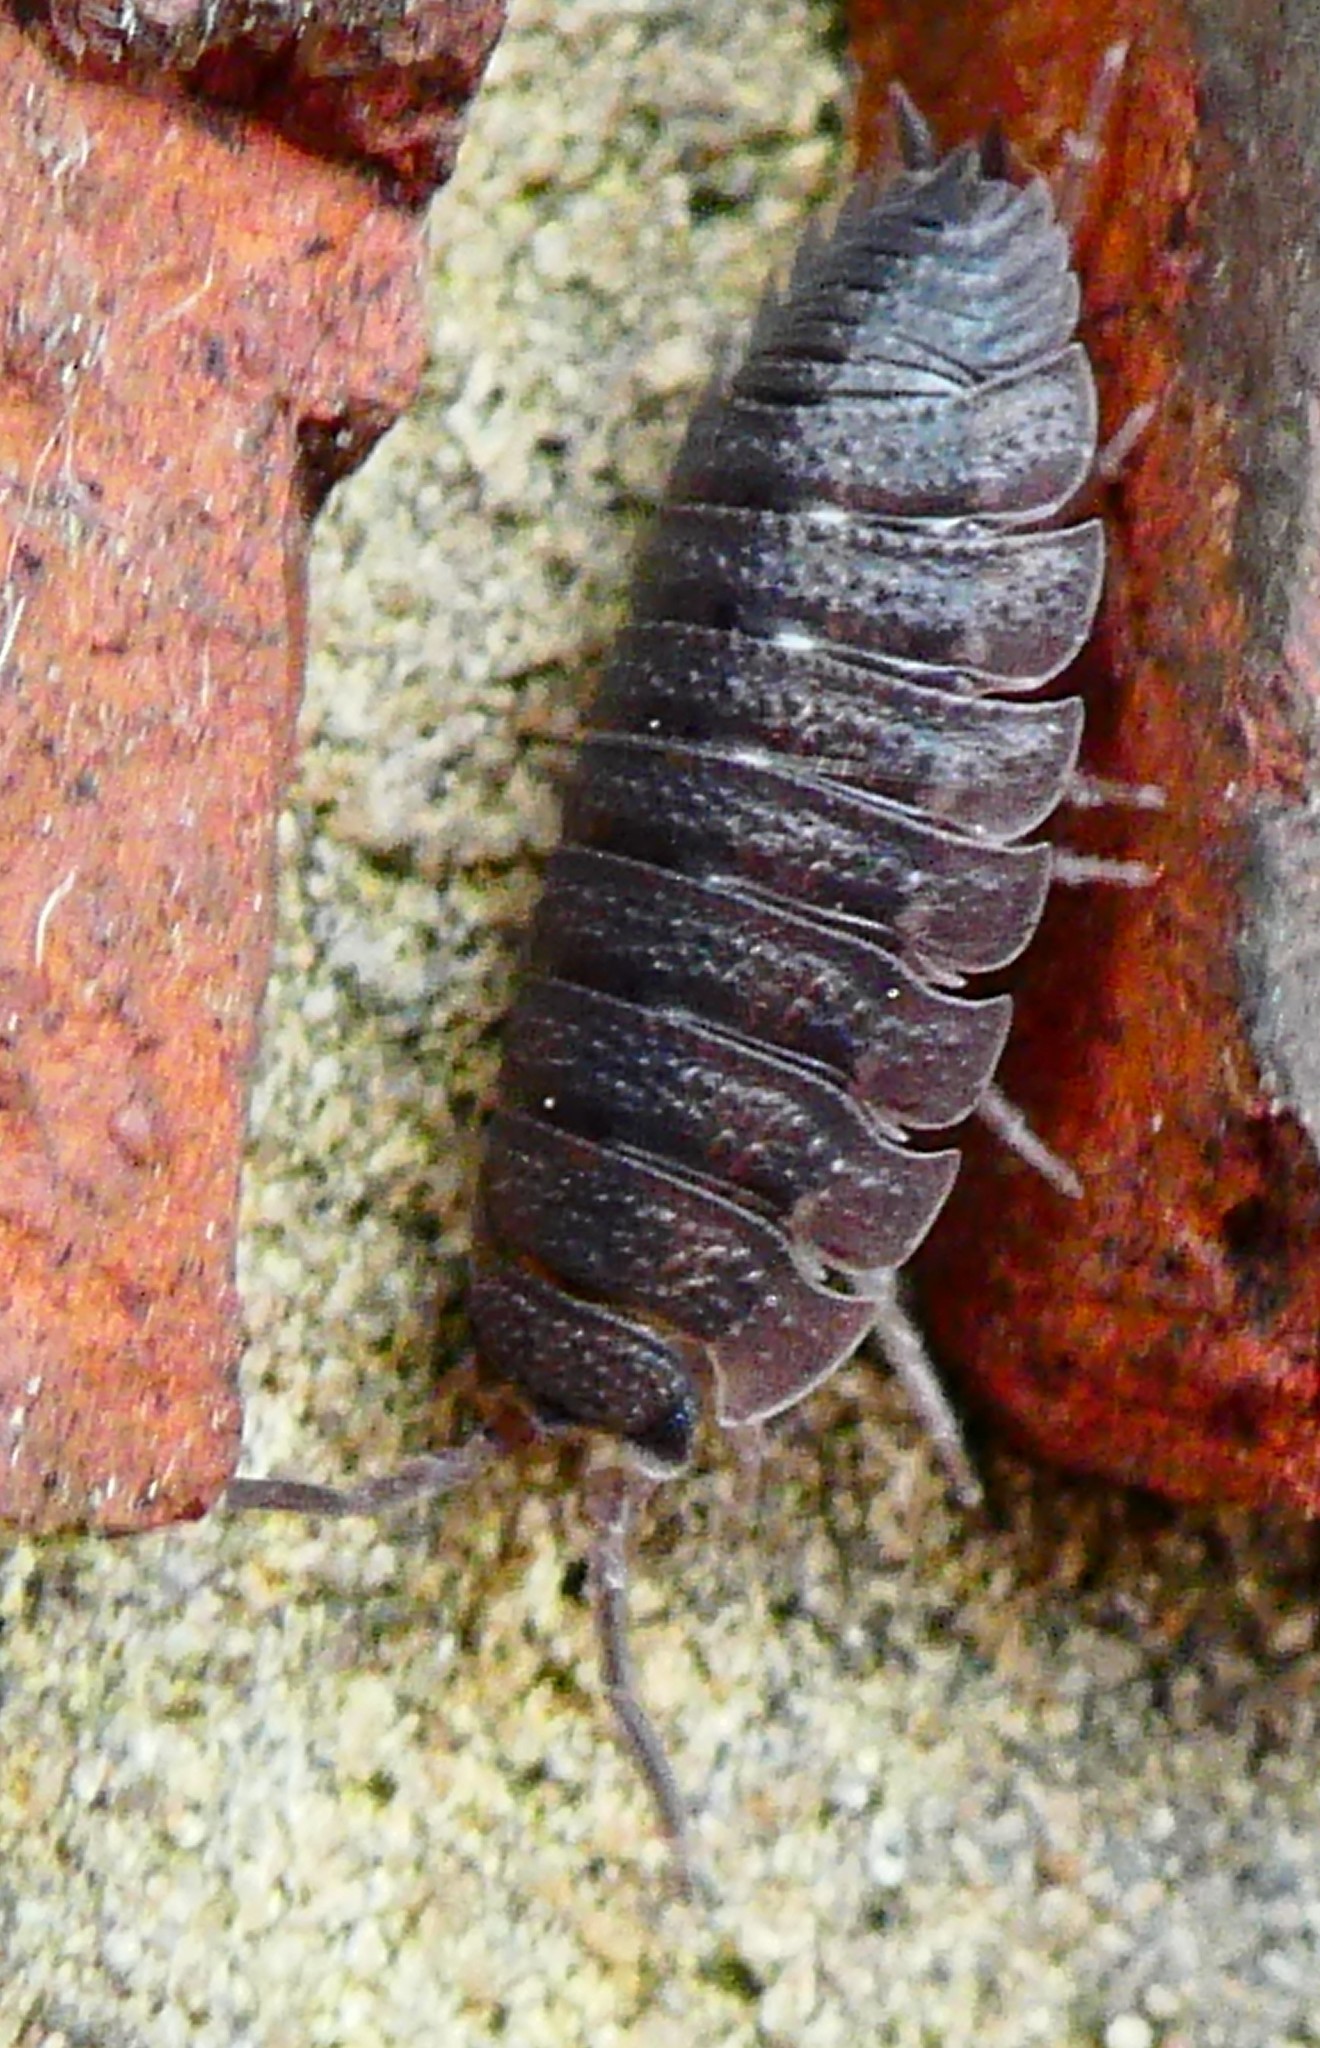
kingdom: Animalia
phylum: Arthropoda
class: Malacostraca
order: Isopoda
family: Porcellionidae
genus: Porcellio
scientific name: Porcellio scaber
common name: Common rough woodlouse
